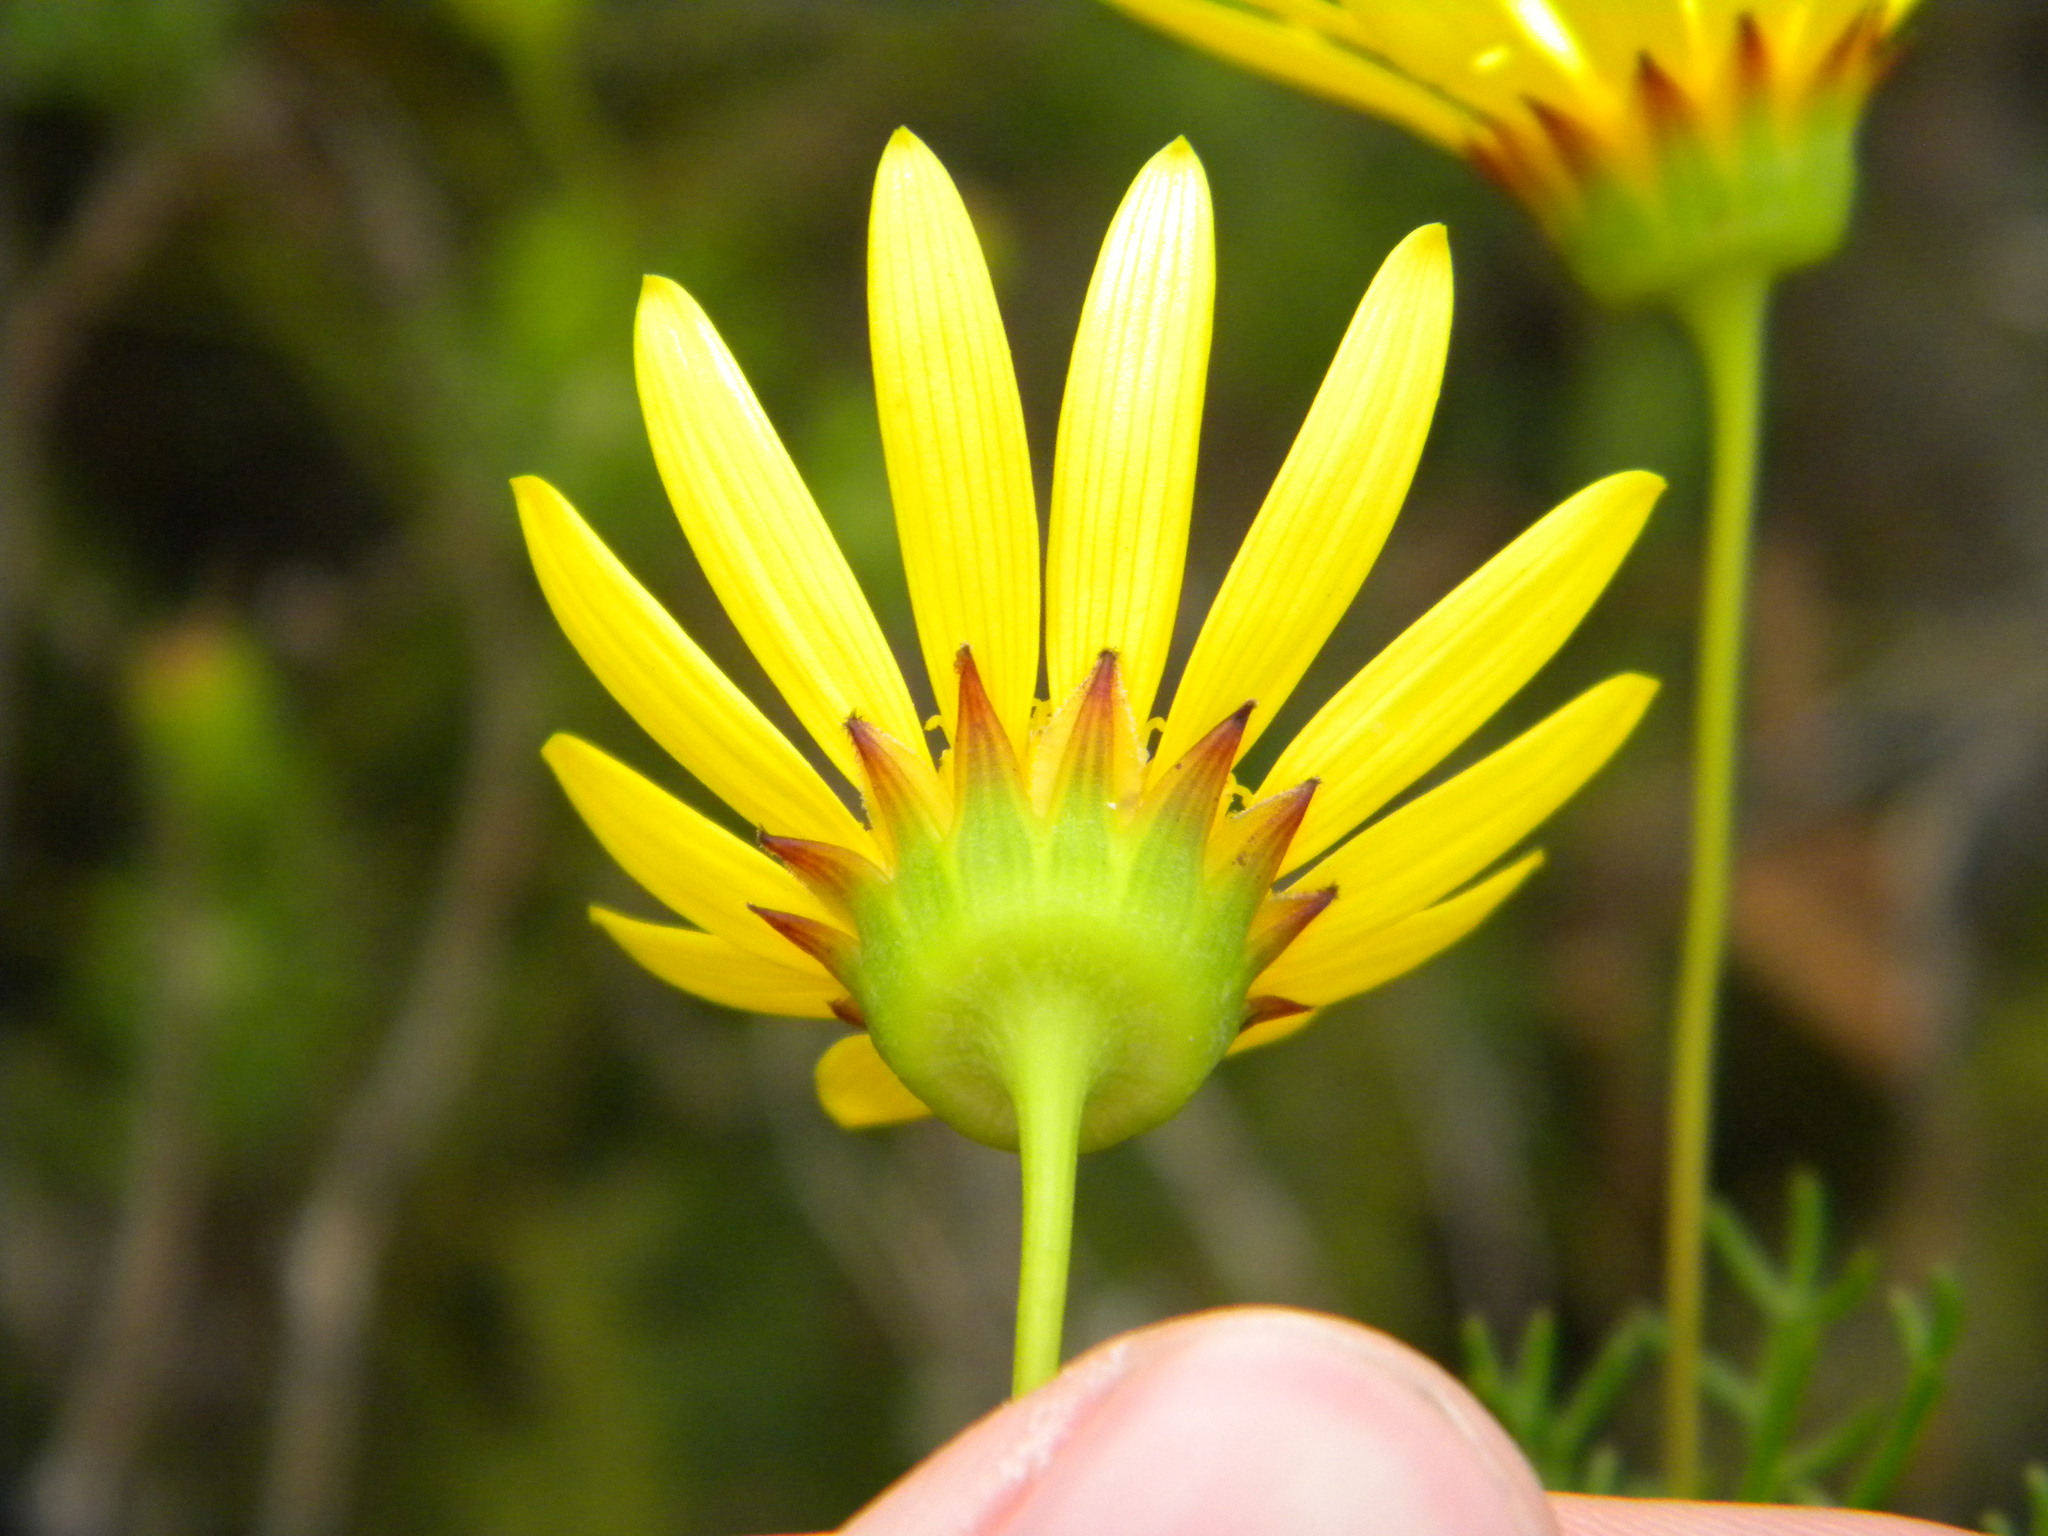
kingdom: Plantae
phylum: Tracheophyta
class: Magnoliopsida
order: Asterales
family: Asteraceae
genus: Euryops
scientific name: Euryops abrotanifolius
